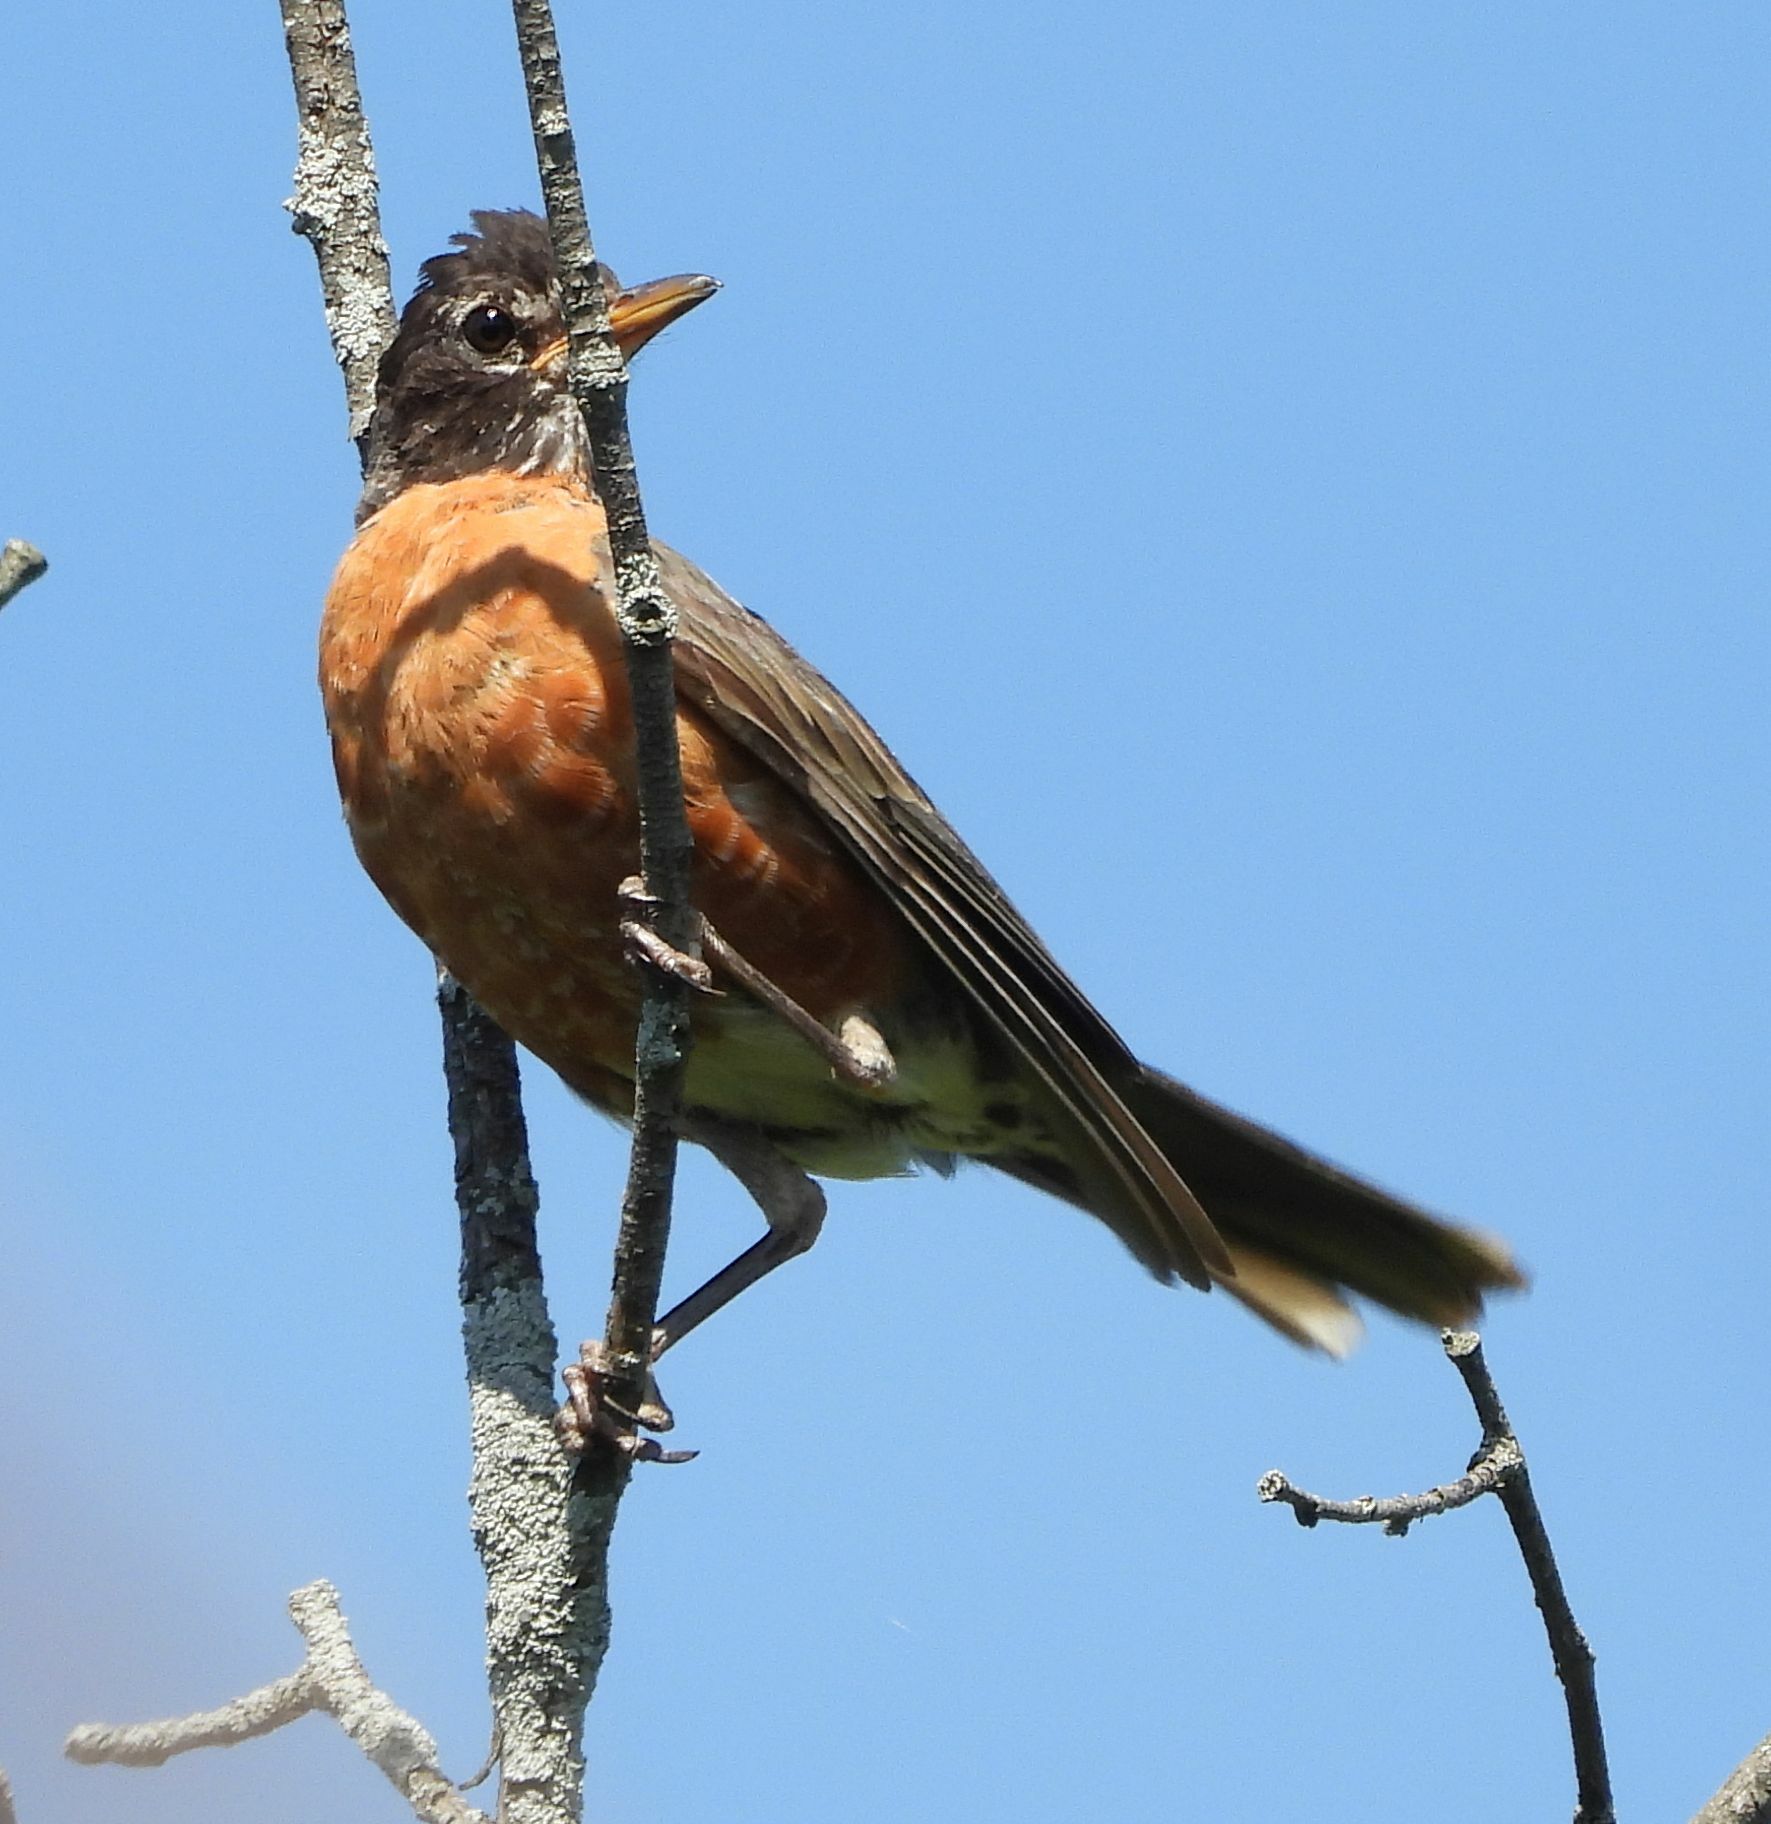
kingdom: Animalia
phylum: Chordata
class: Aves
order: Passeriformes
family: Turdidae
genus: Turdus
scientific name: Turdus migratorius
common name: American robin
